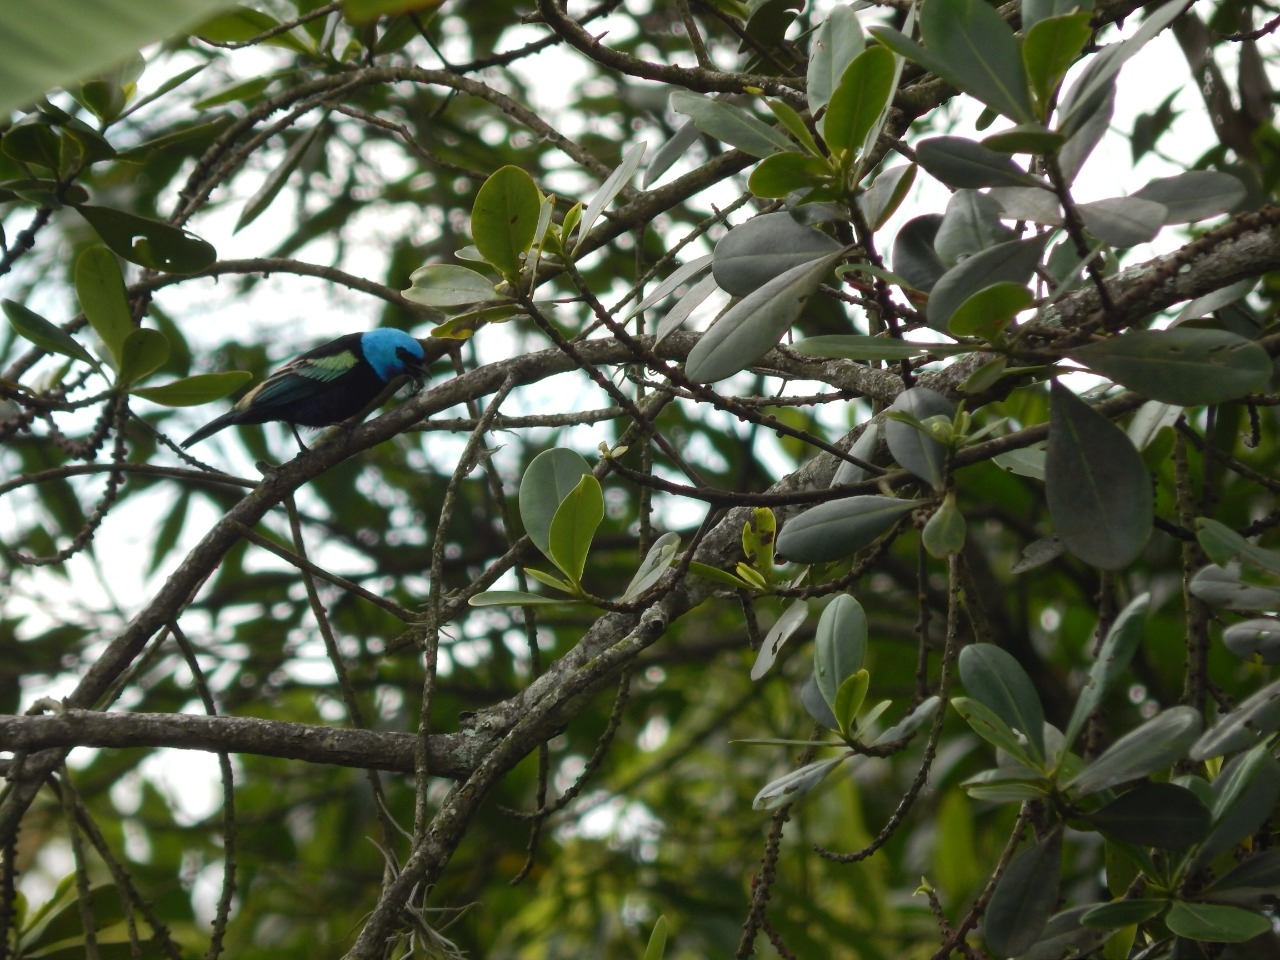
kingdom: Animalia
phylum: Chordata
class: Aves
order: Passeriformes
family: Thraupidae
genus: Stilpnia
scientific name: Stilpnia cyanicollis
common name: Blue-necked tanager
